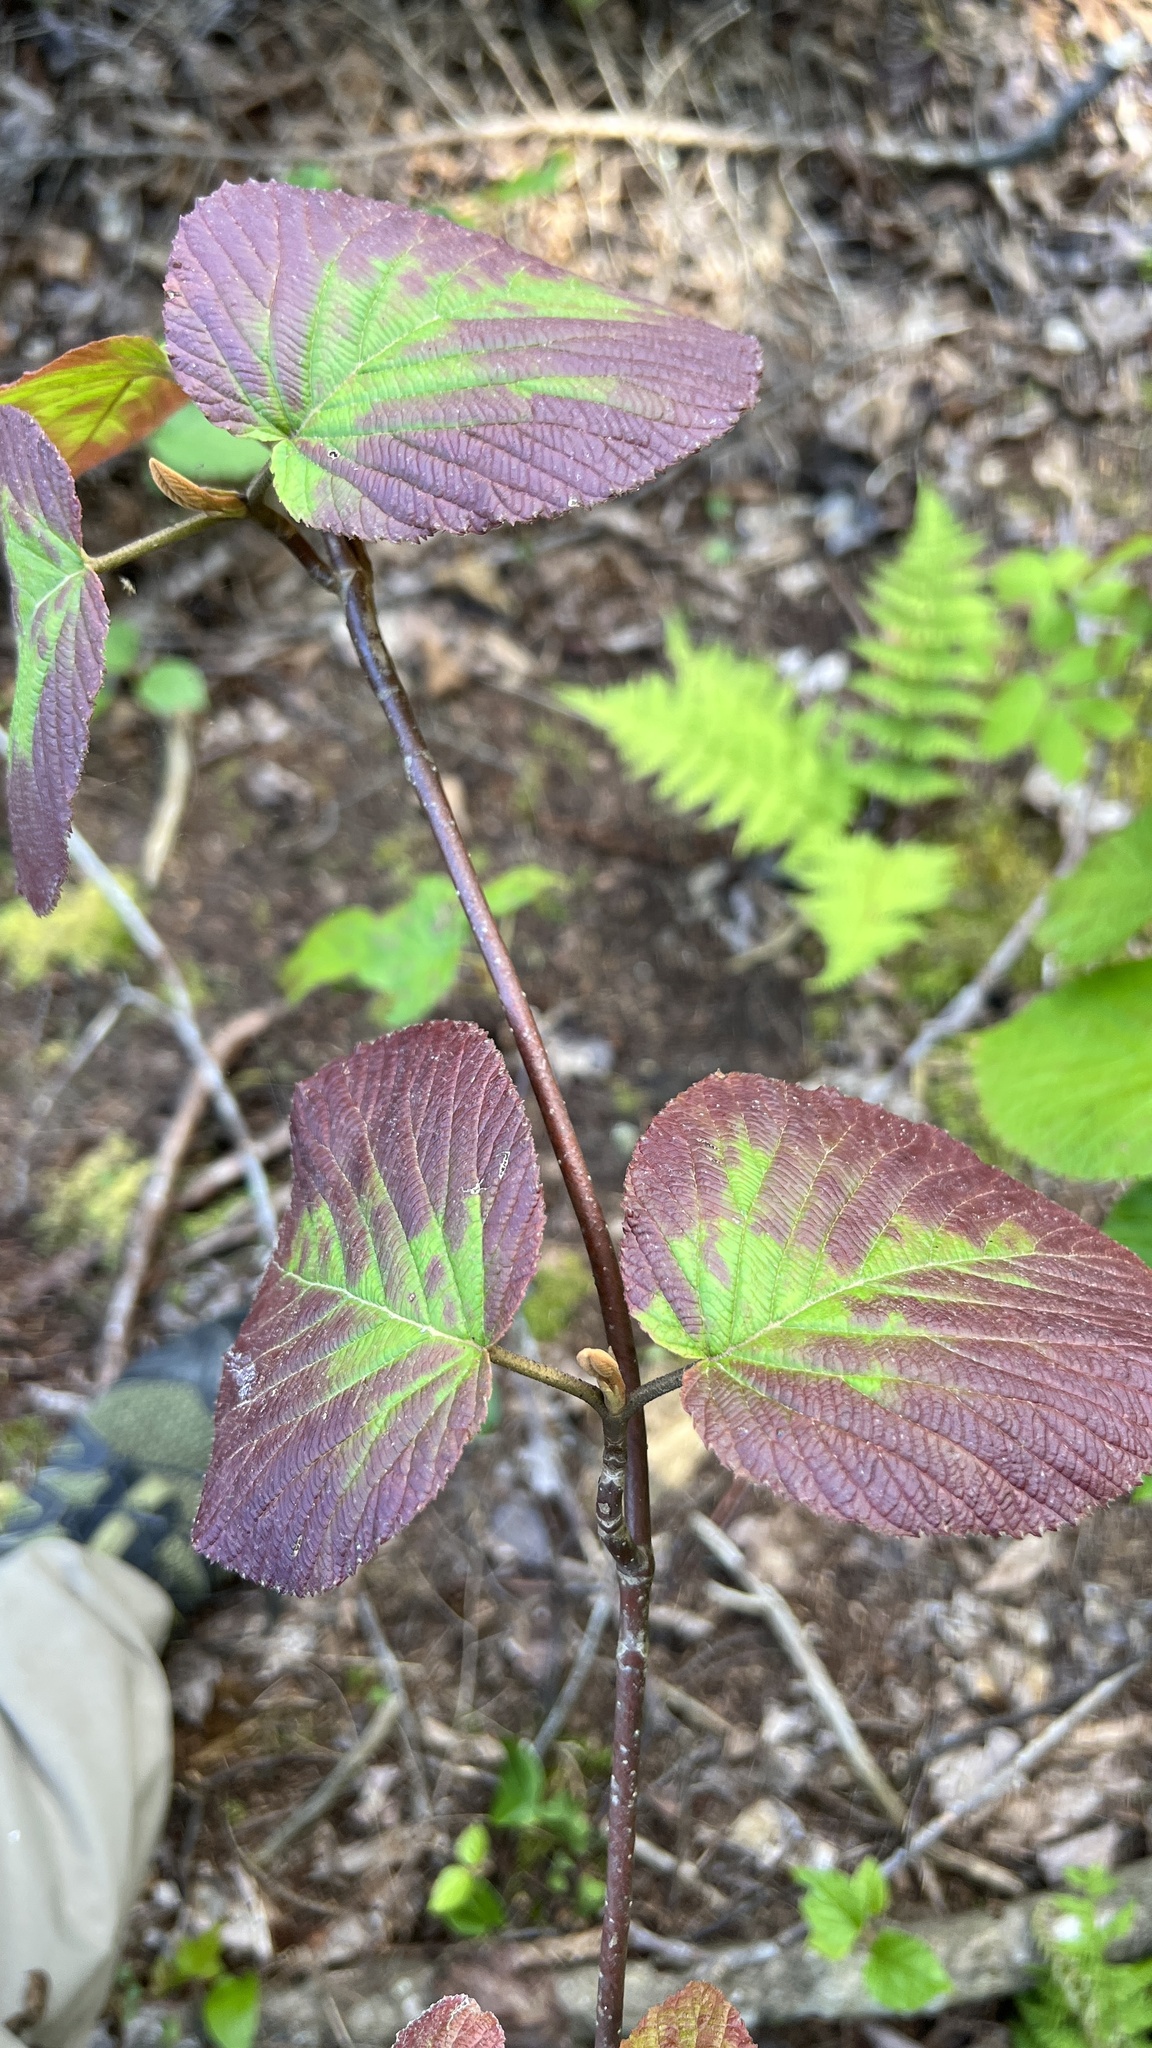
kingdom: Plantae
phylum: Tracheophyta
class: Magnoliopsida
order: Dipsacales
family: Viburnaceae
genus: Viburnum
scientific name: Viburnum lantanoides
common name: Hobblebush
